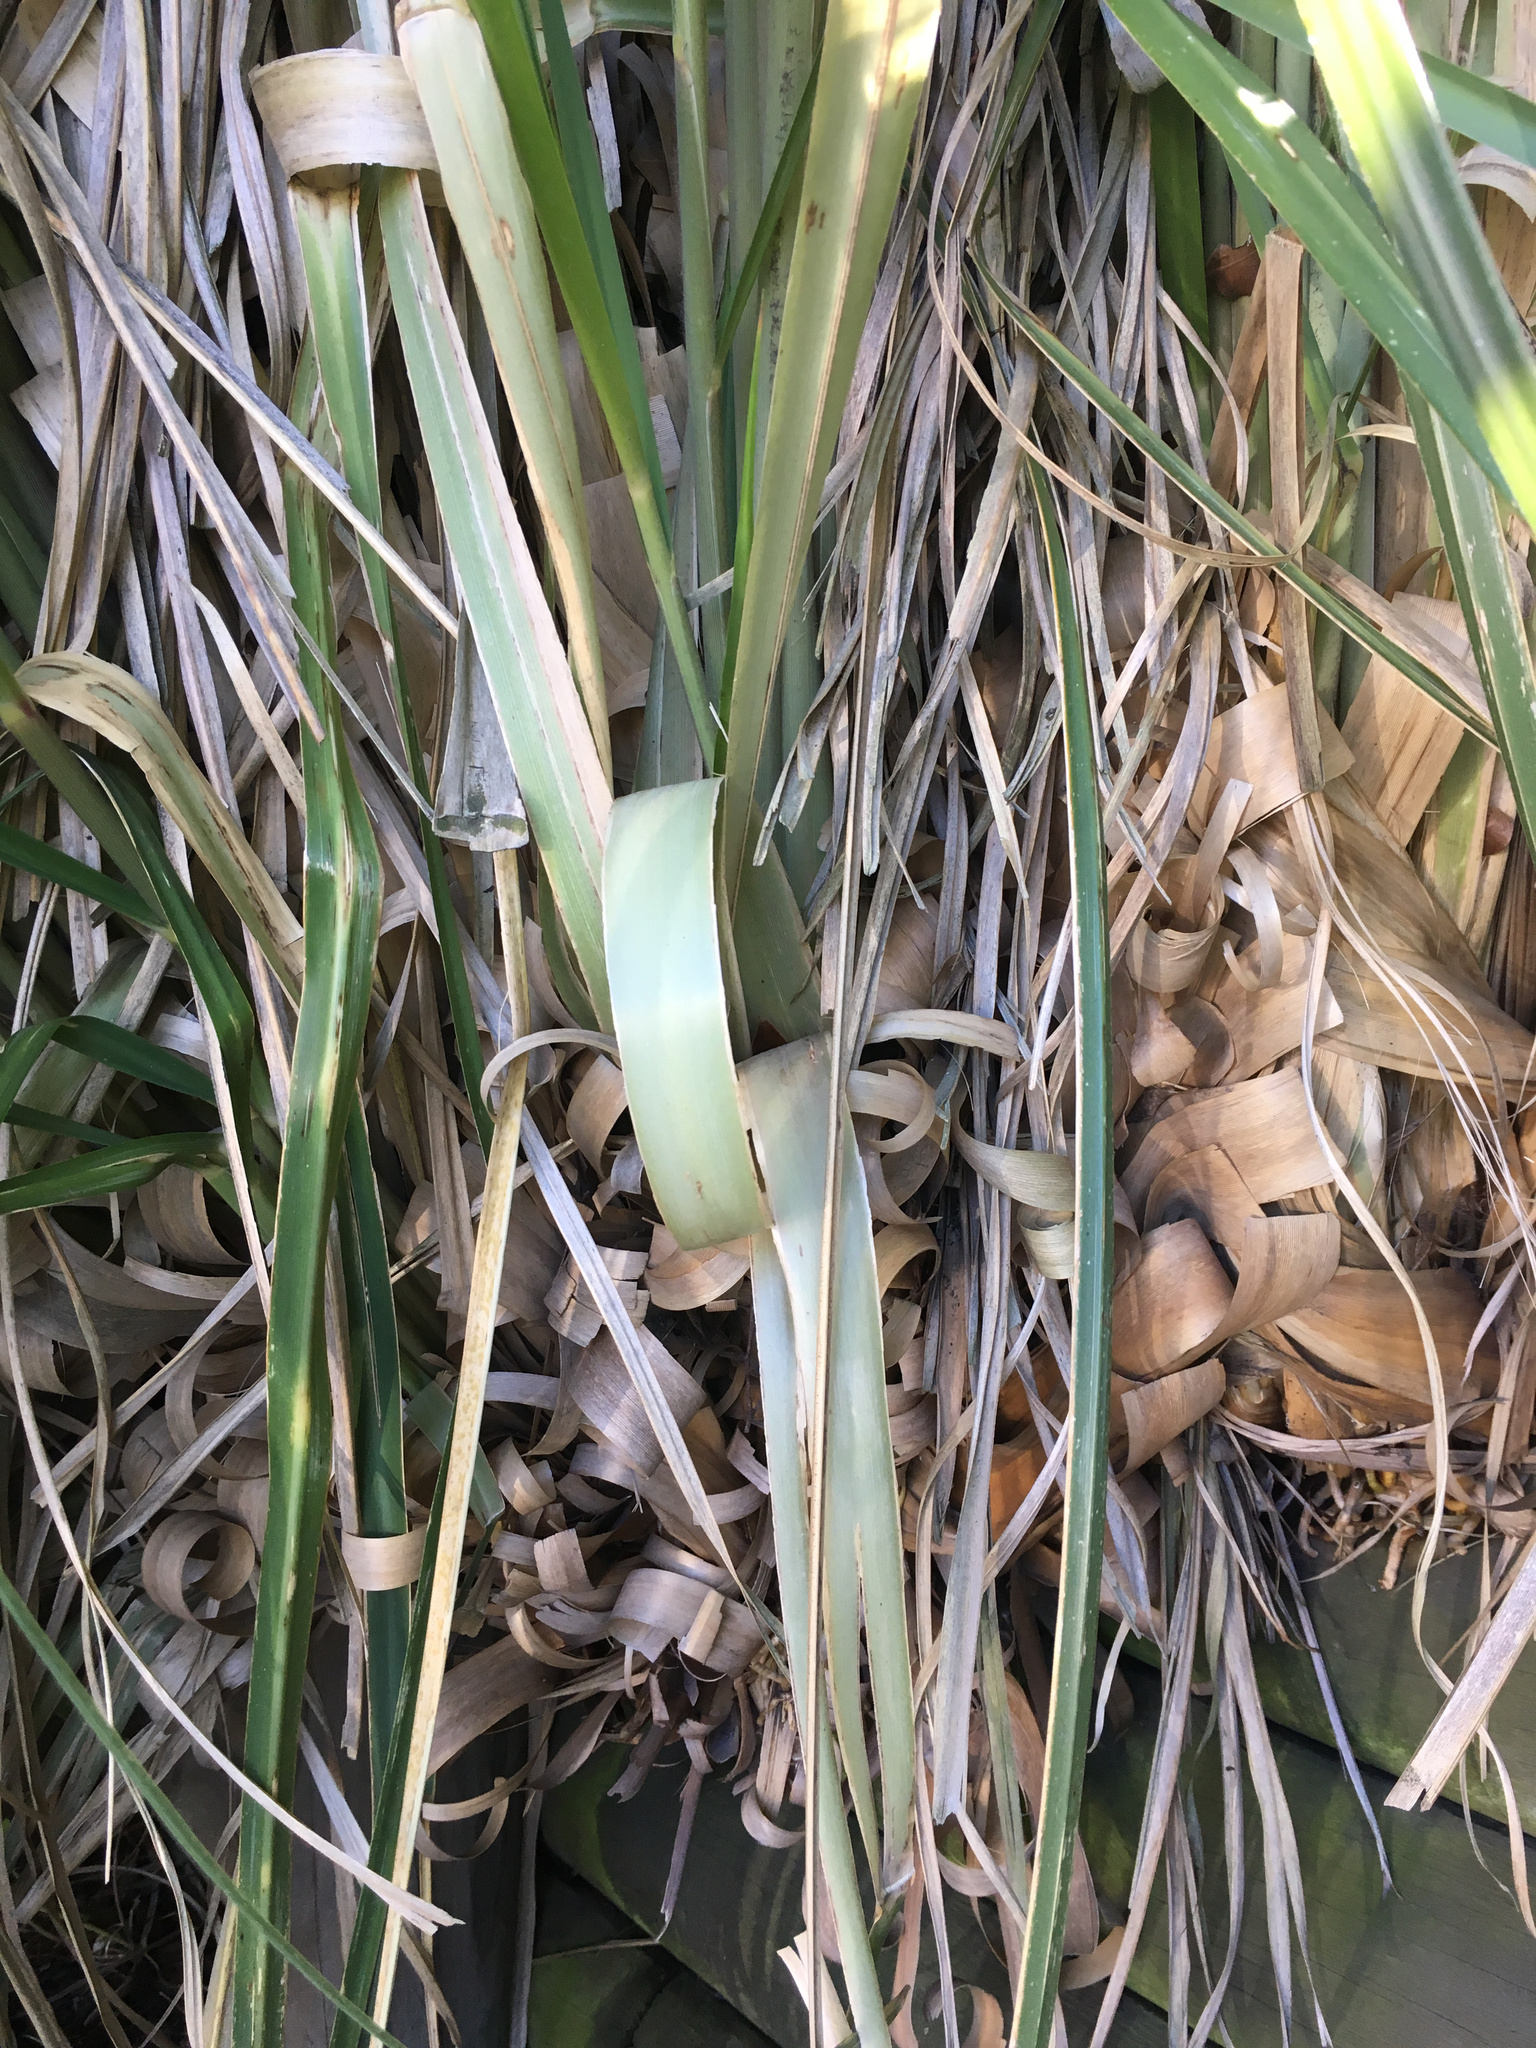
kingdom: Plantae
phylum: Tracheophyta
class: Liliopsida
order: Poales
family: Poaceae
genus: Cortaderia
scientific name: Cortaderia selloana
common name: Uruguayan pampas grass
